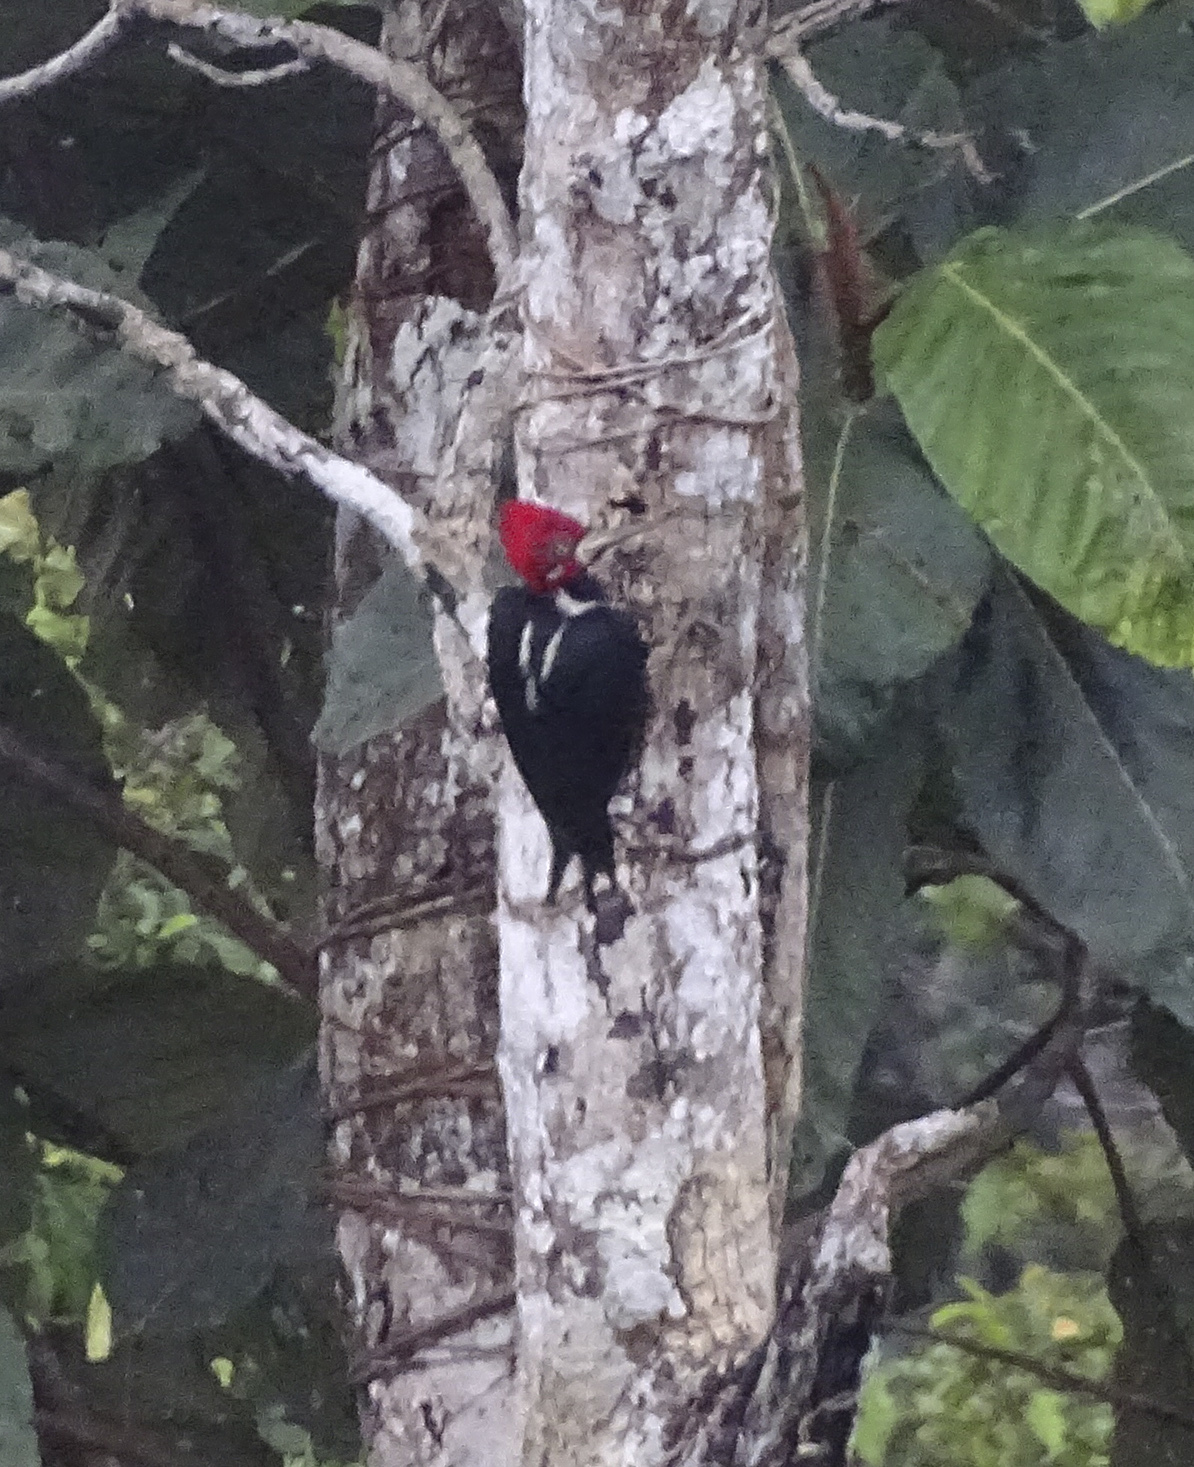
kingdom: Animalia
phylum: Chordata
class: Aves
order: Piciformes
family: Picidae
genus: Campephilus
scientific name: Campephilus melanoleucos
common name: Crimson-crested woodpecker
